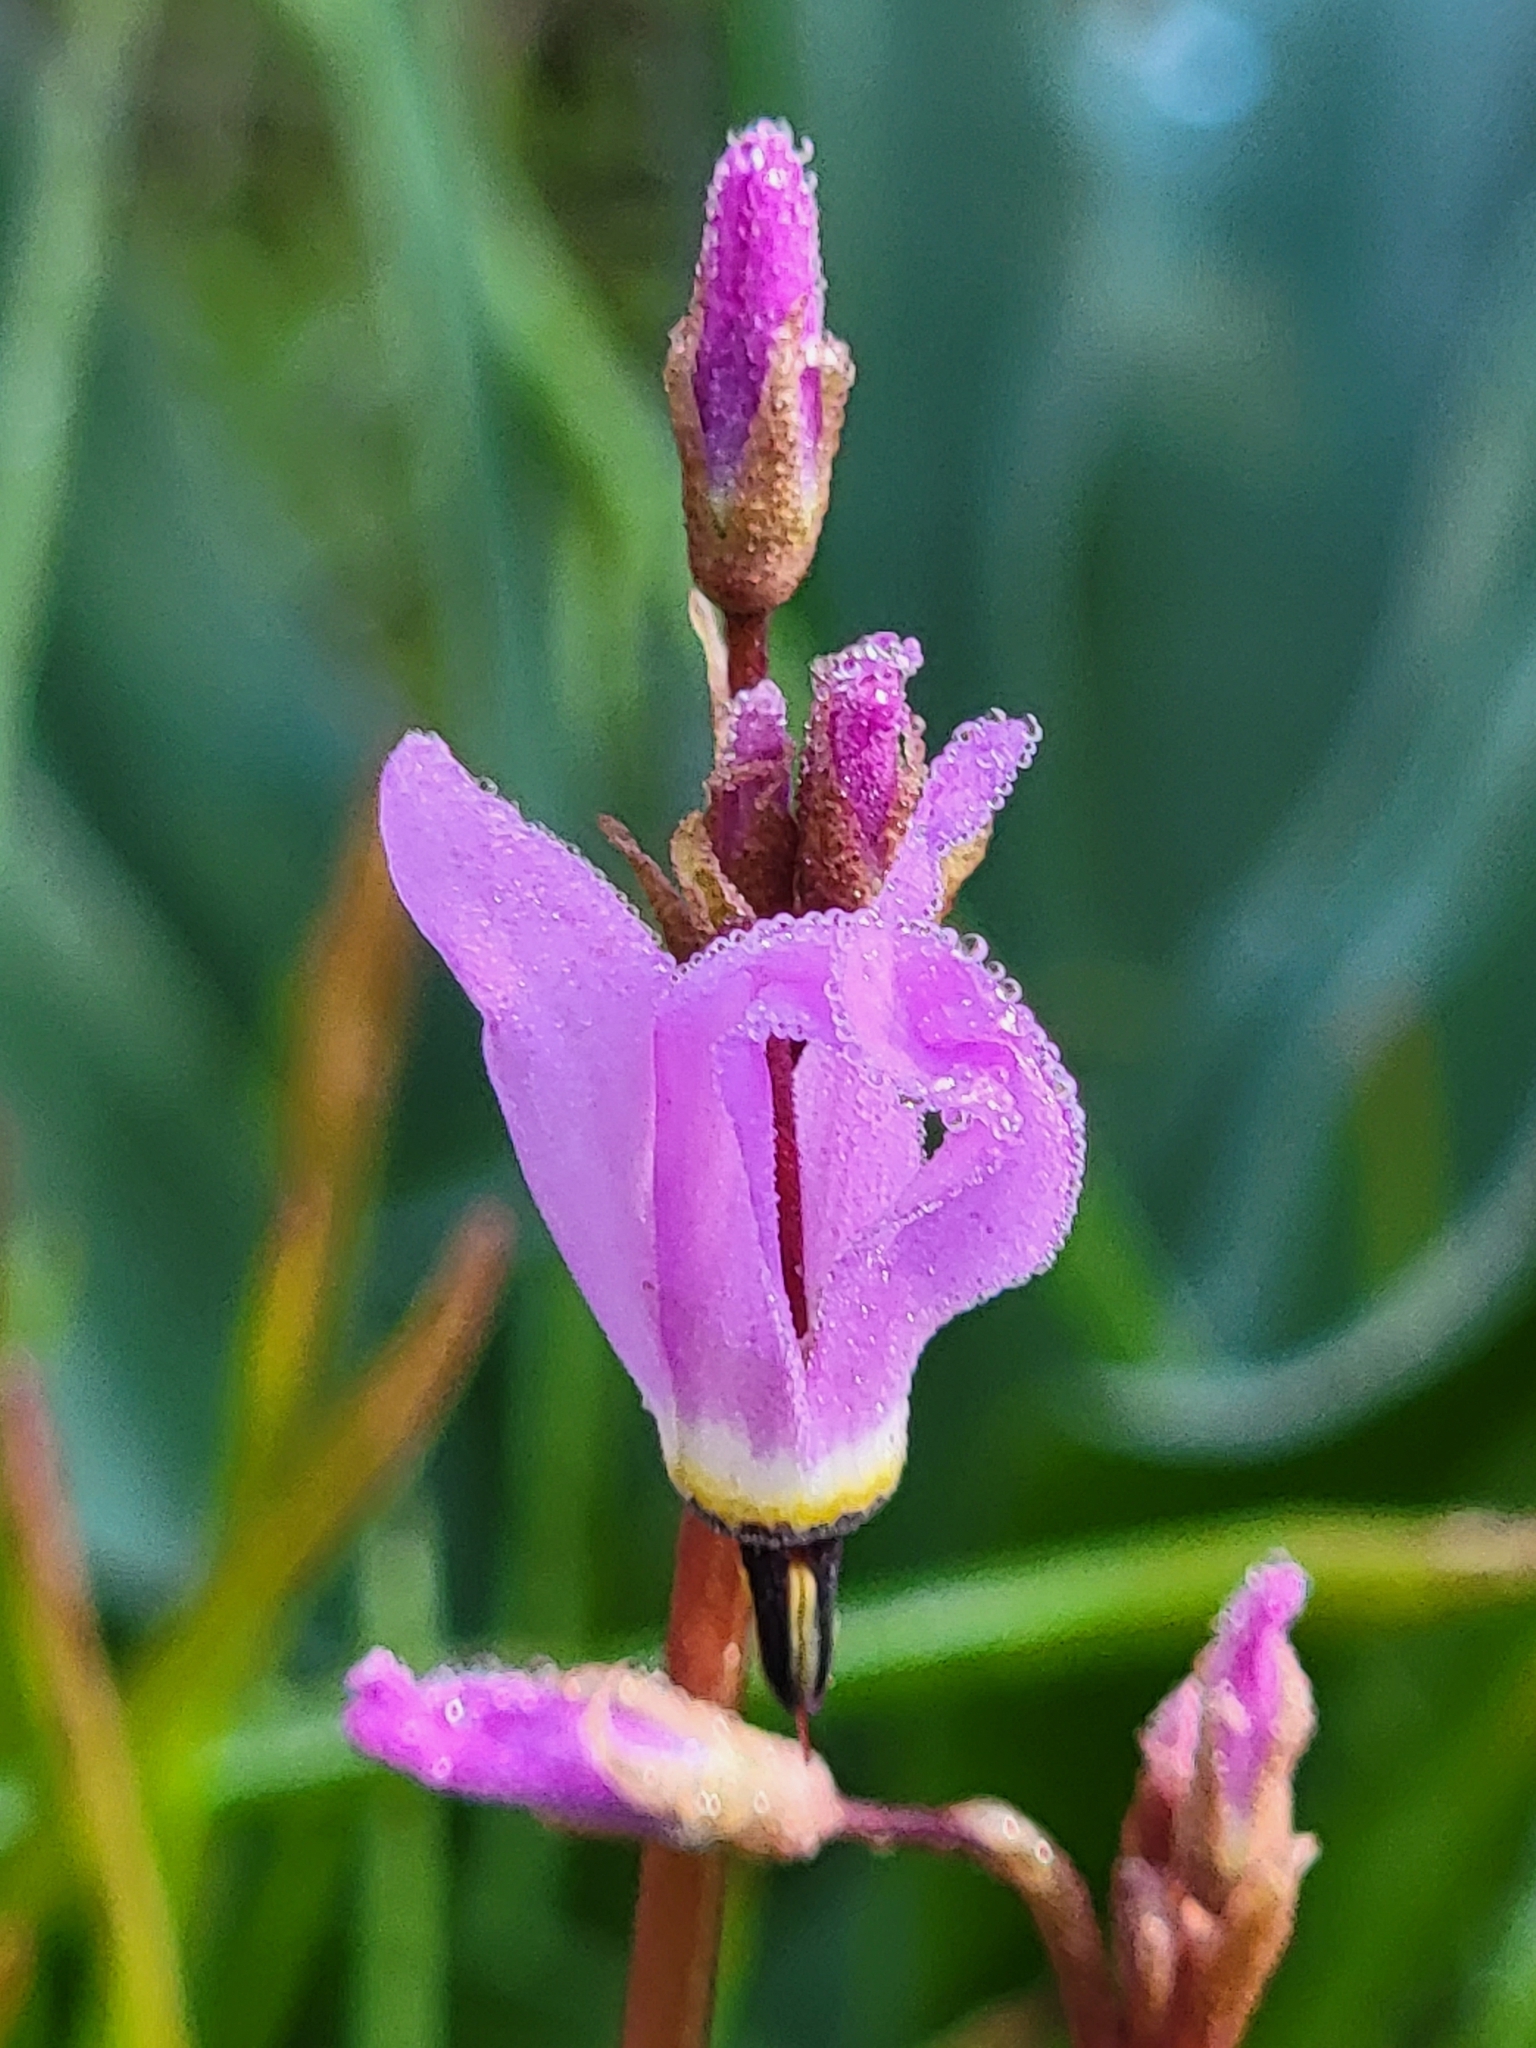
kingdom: Plantae
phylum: Tracheophyta
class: Magnoliopsida
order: Ericales
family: Primulaceae
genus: Dodecatheon
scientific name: Dodecatheon hendersonii
